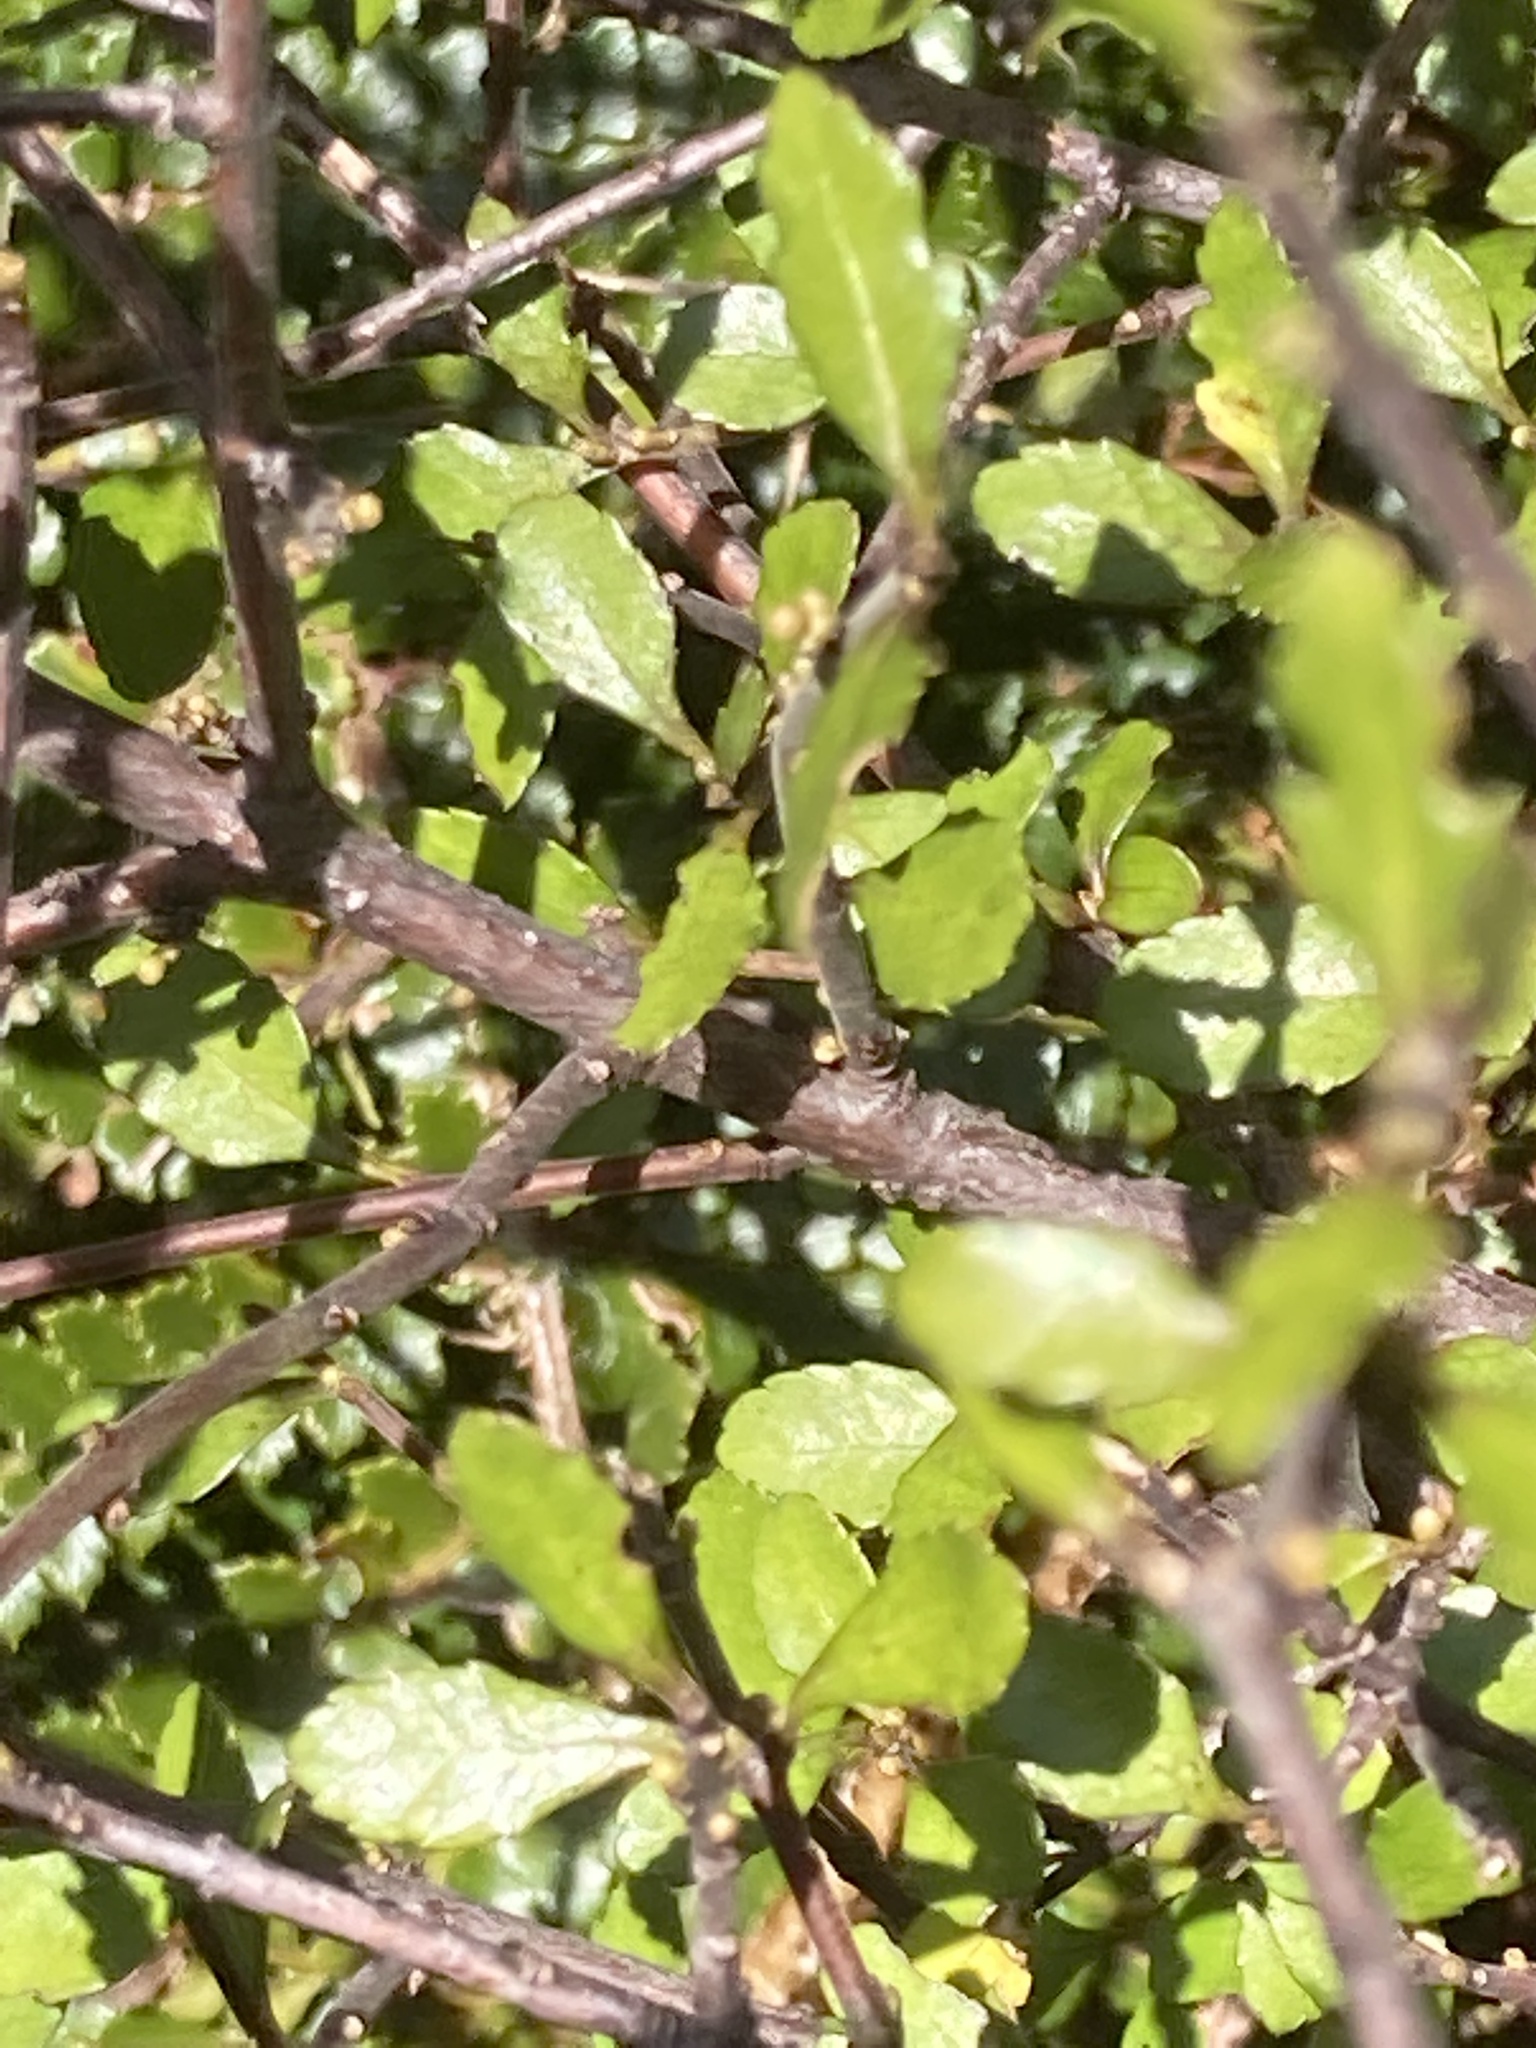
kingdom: Plantae
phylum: Tracheophyta
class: Magnoliopsida
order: Oxalidales
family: Elaeocarpaceae
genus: Aristotelia
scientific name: Aristotelia fruticosa
